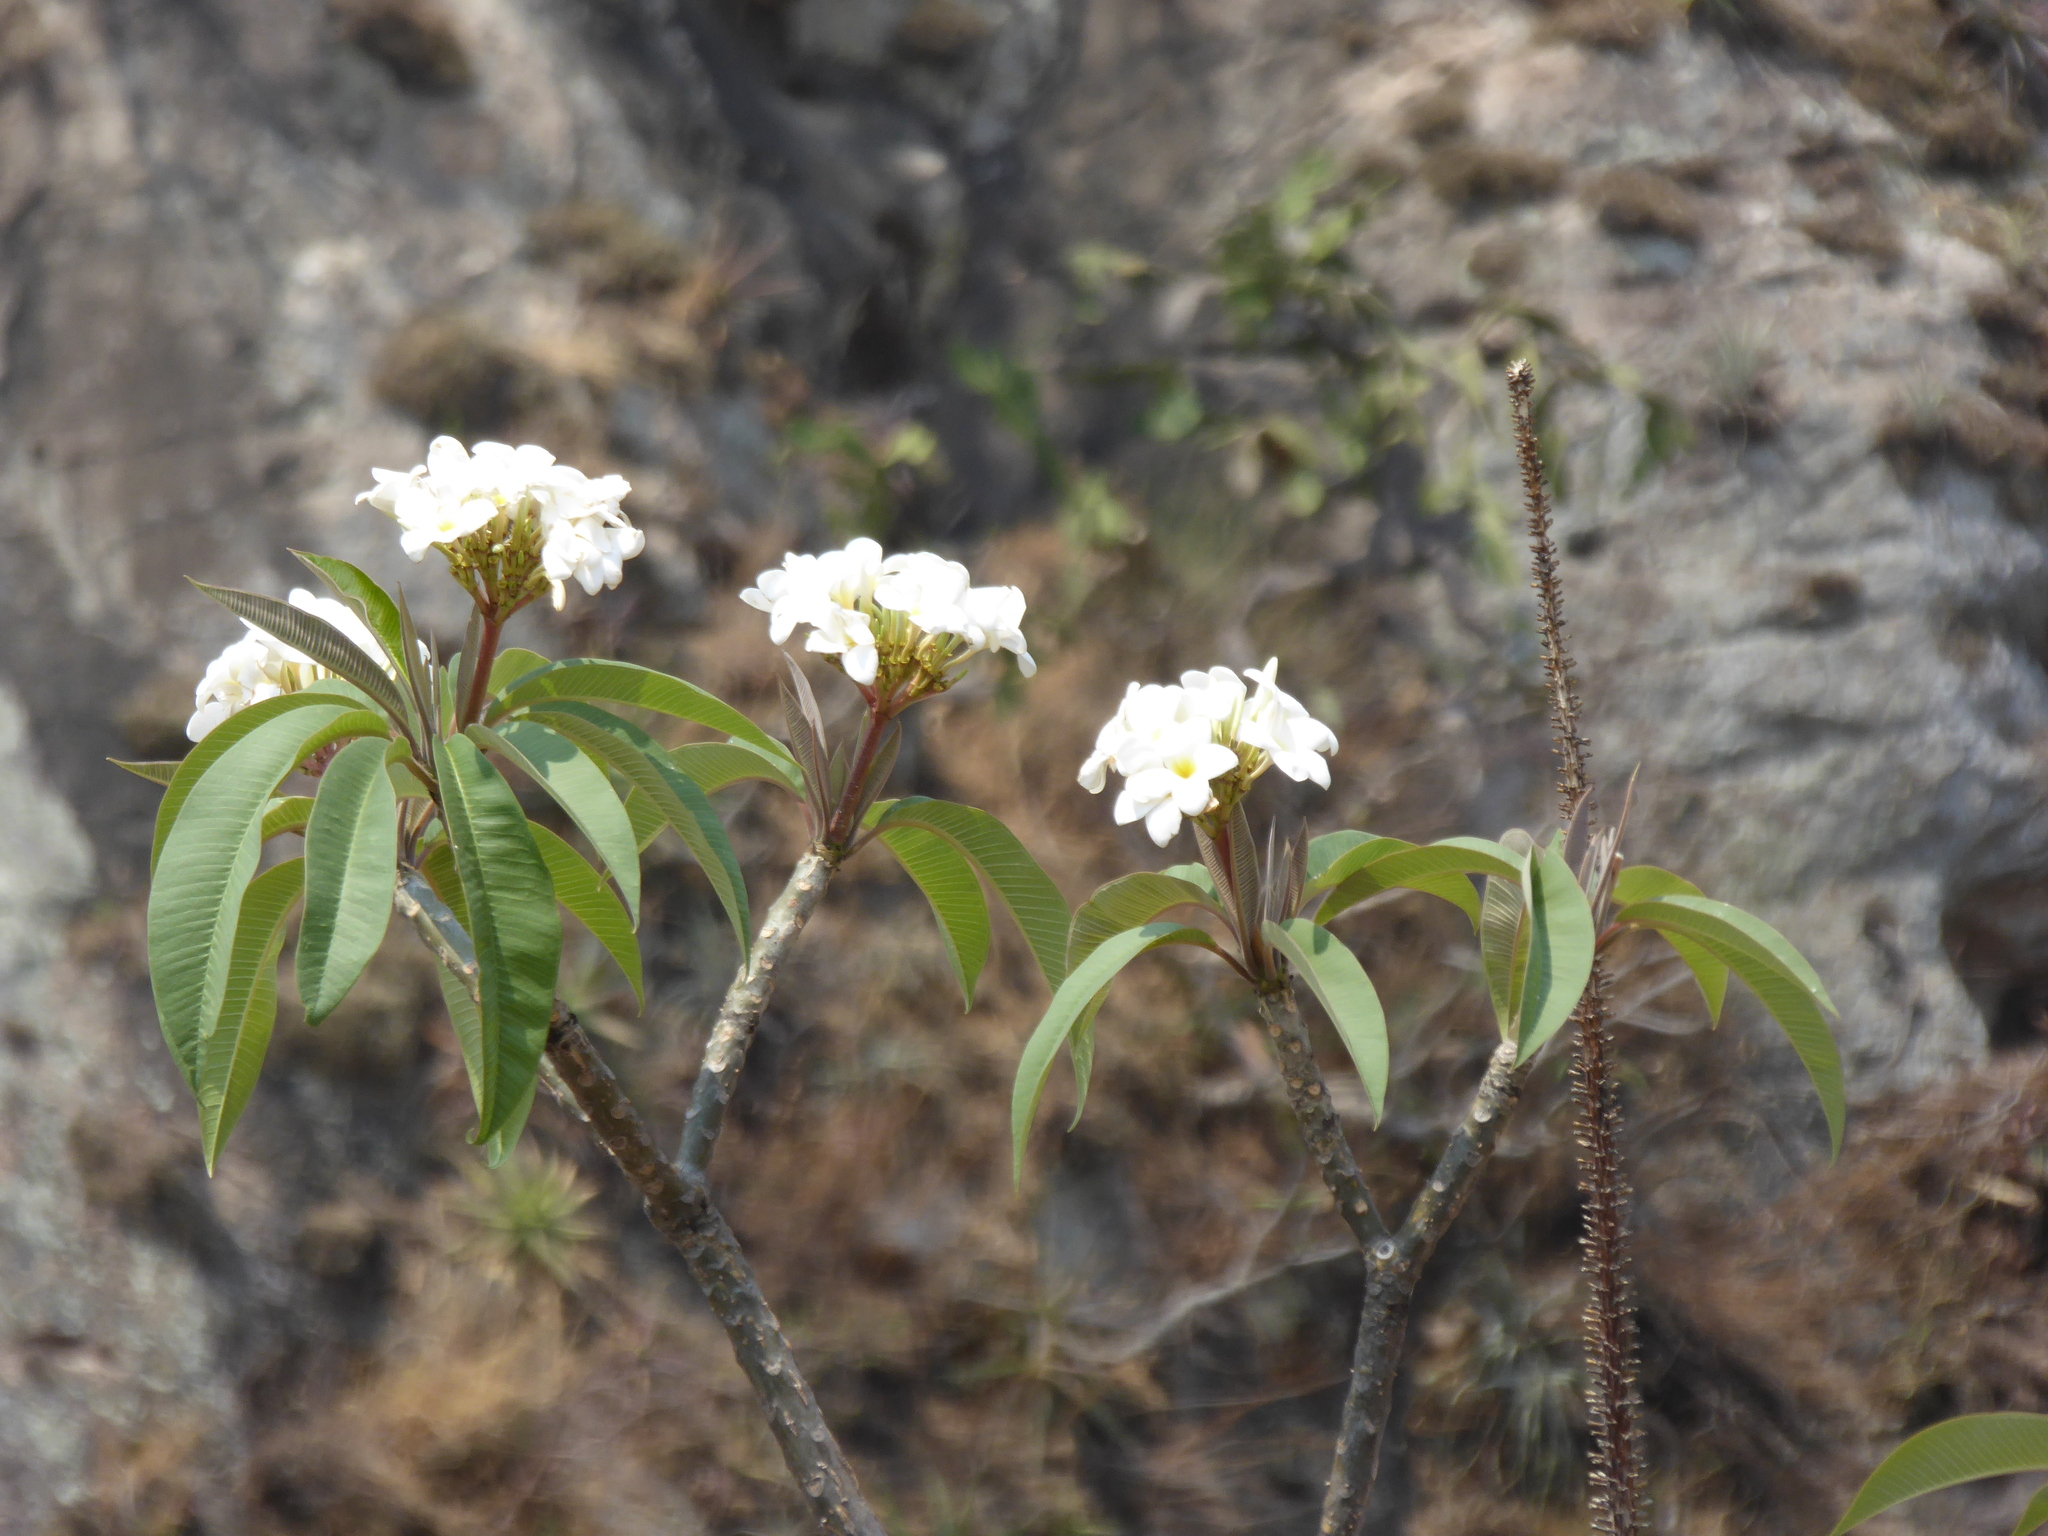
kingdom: Plantae
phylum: Tracheophyta
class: Magnoliopsida
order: Gentianales
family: Apocynaceae
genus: Plumeria
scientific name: Plumeria rubra
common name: Pagoda-tree
